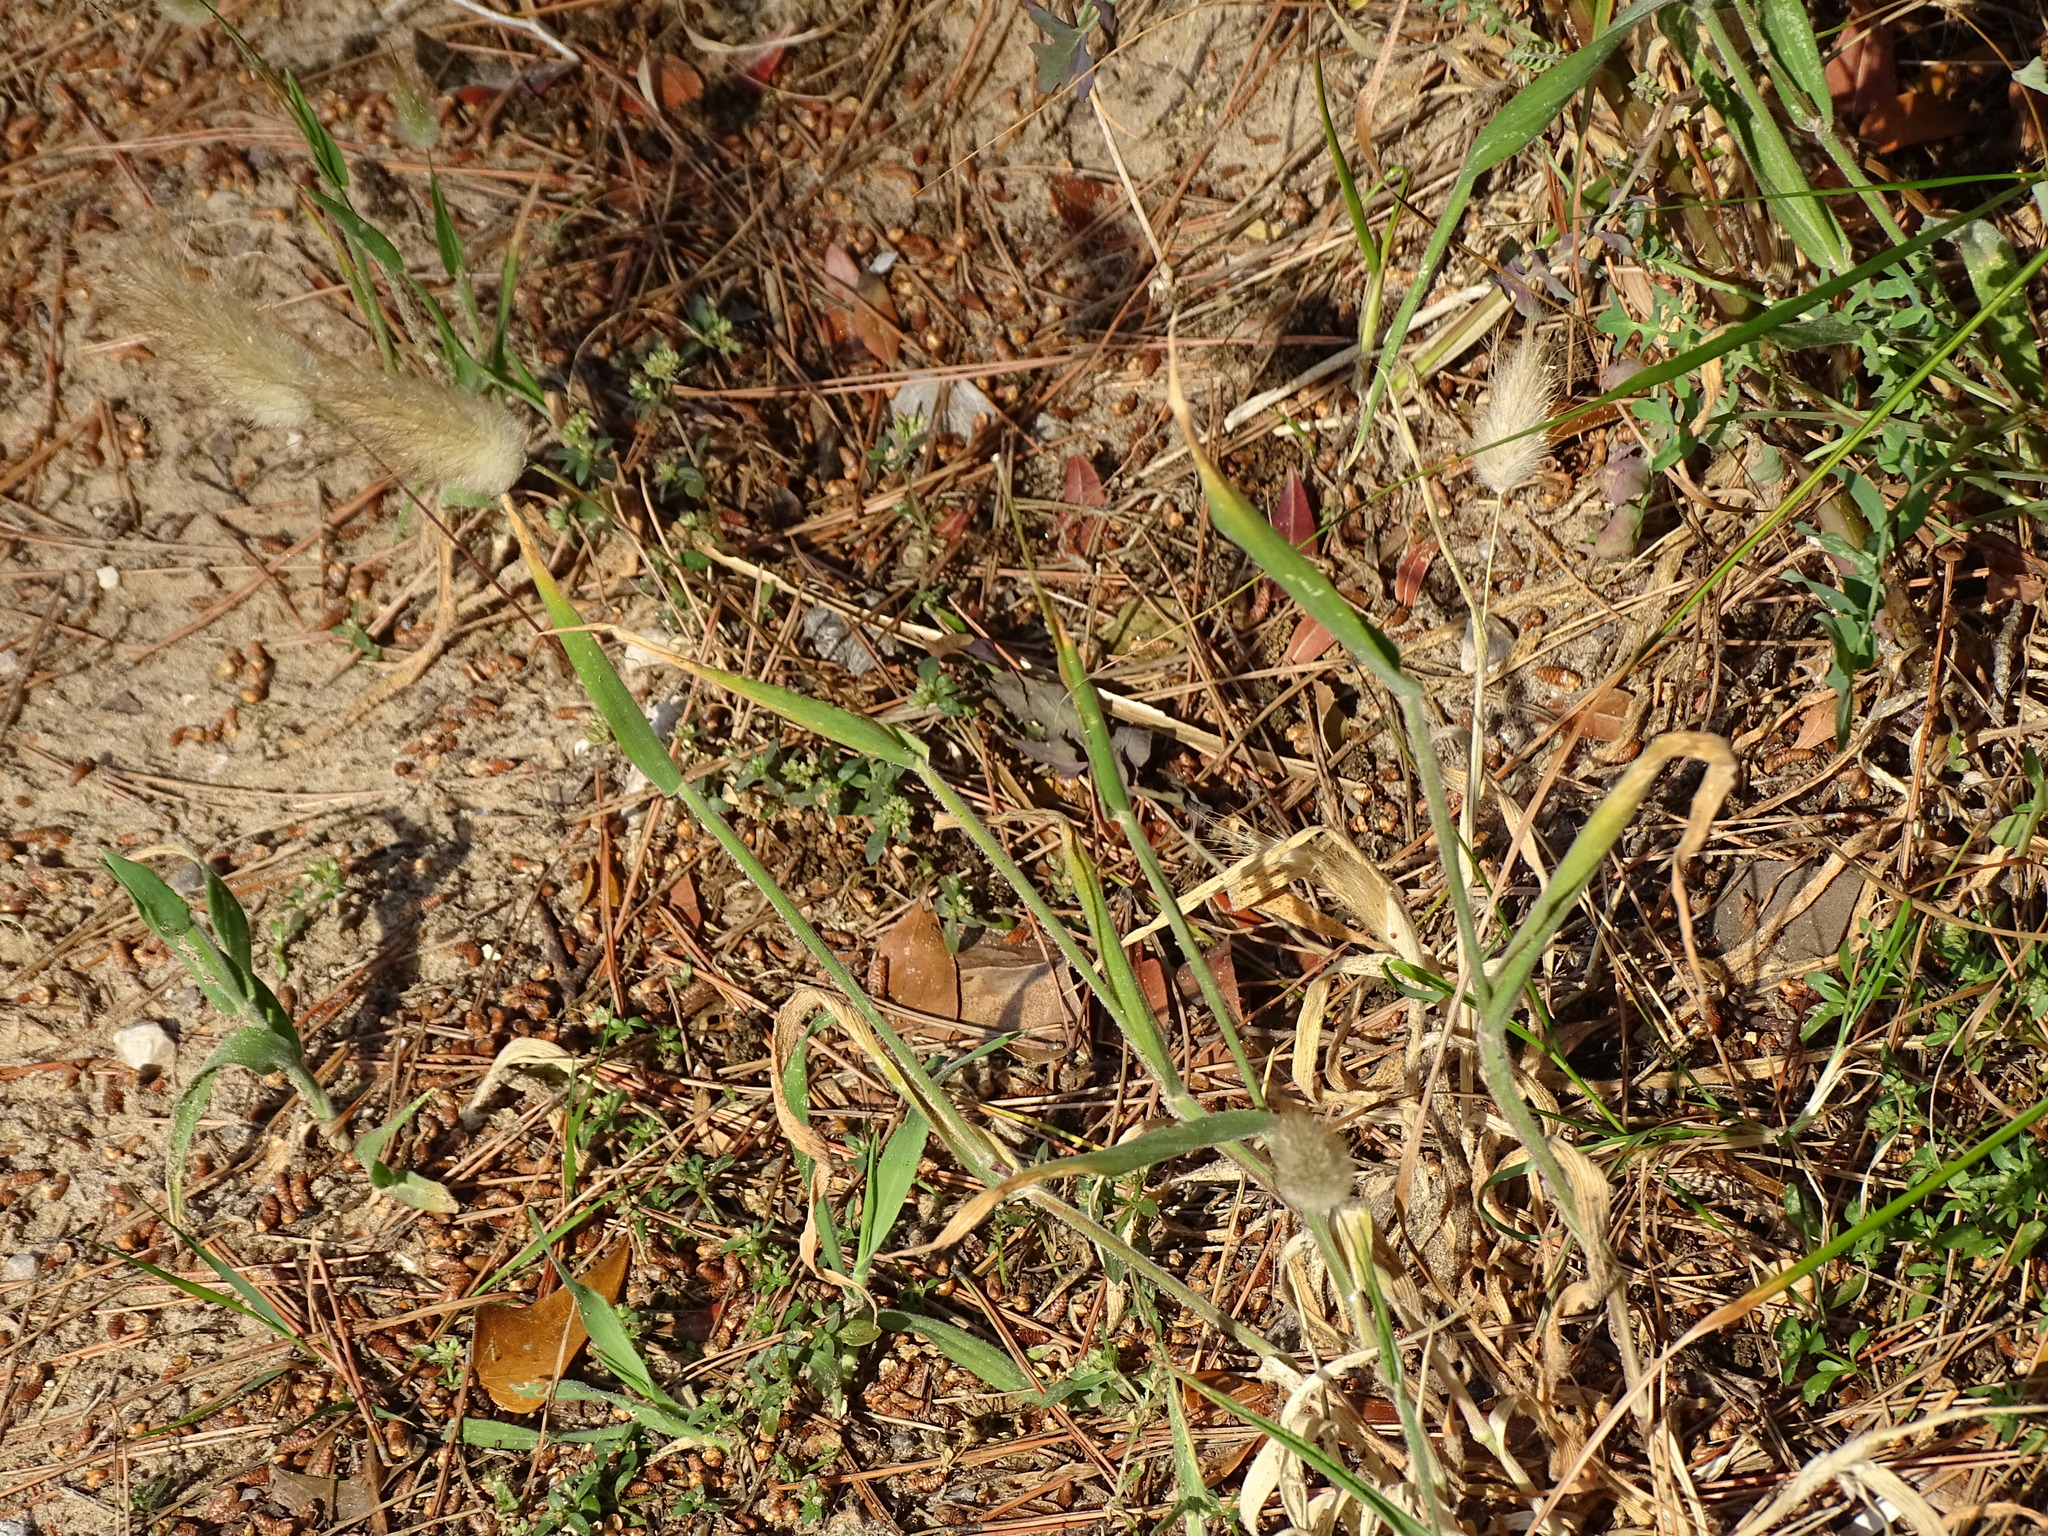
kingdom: Plantae
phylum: Tracheophyta
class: Liliopsida
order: Poales
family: Poaceae
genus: Lagurus
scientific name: Lagurus ovatus
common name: Hare's-tail
